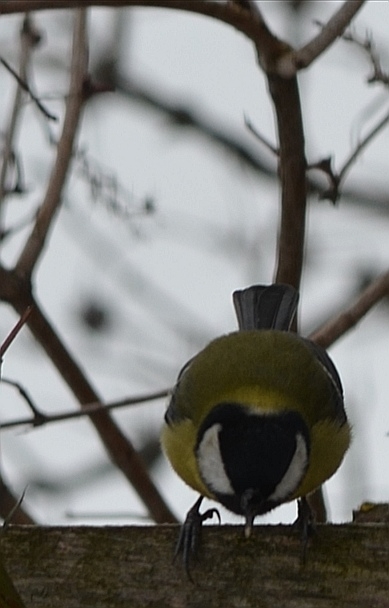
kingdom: Animalia
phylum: Chordata
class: Aves
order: Passeriformes
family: Paridae
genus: Parus
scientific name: Parus major
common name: Great tit
